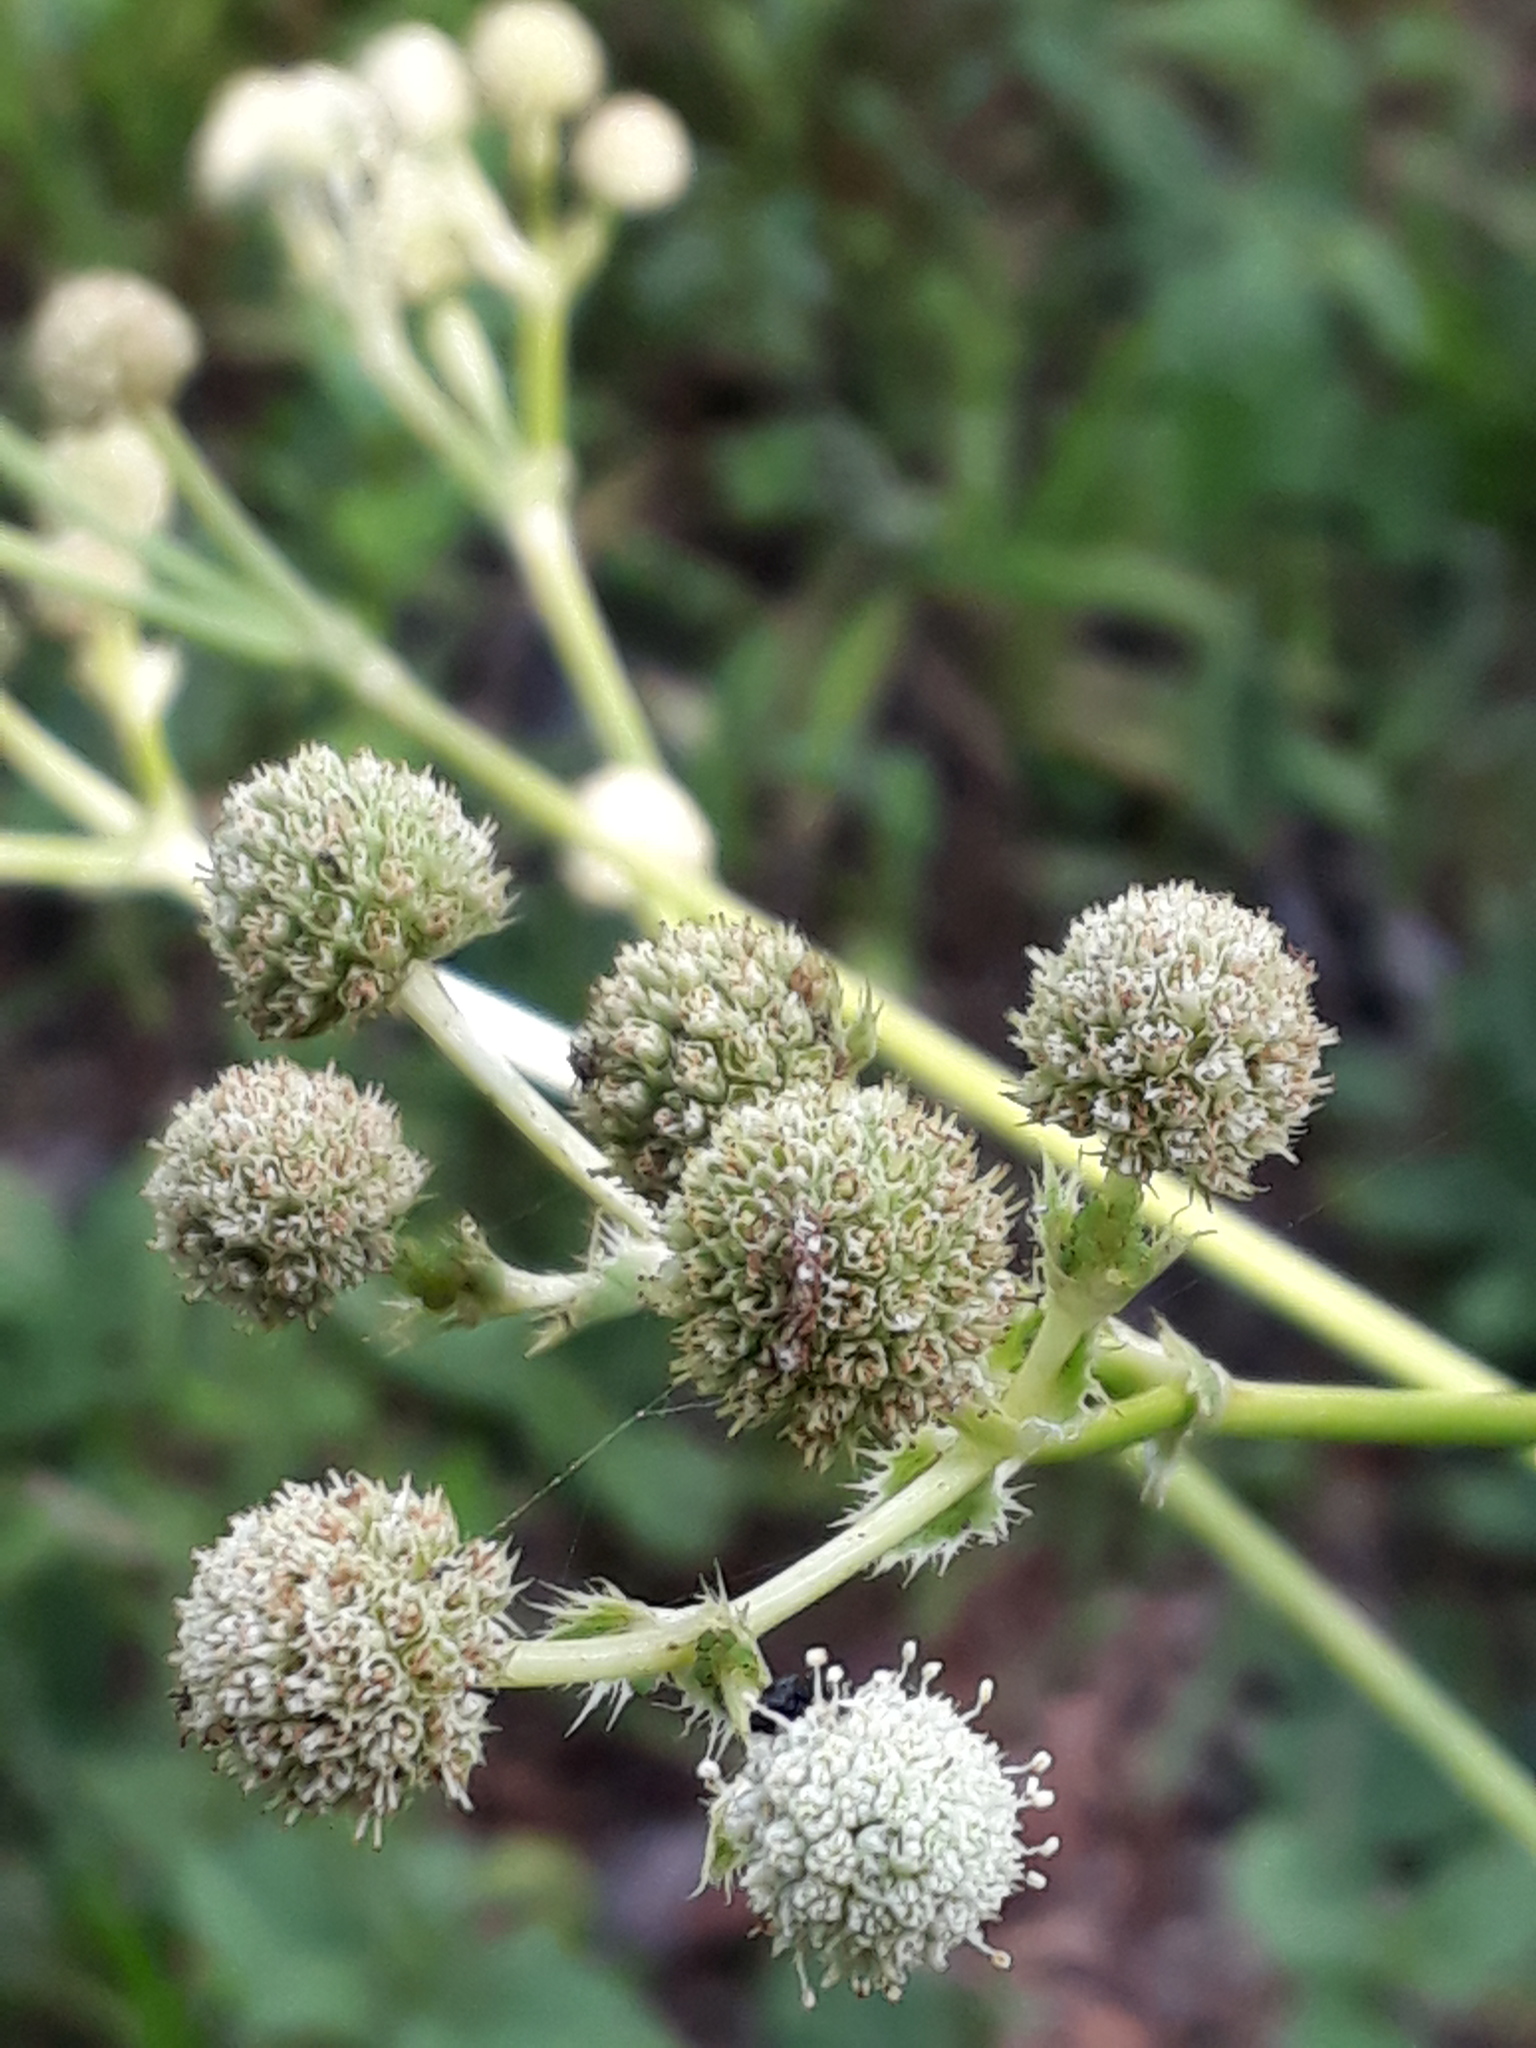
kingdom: Plantae
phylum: Tracheophyta
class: Magnoliopsida
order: Apiales
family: Apiaceae
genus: Eryngium
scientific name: Eryngium elegans
